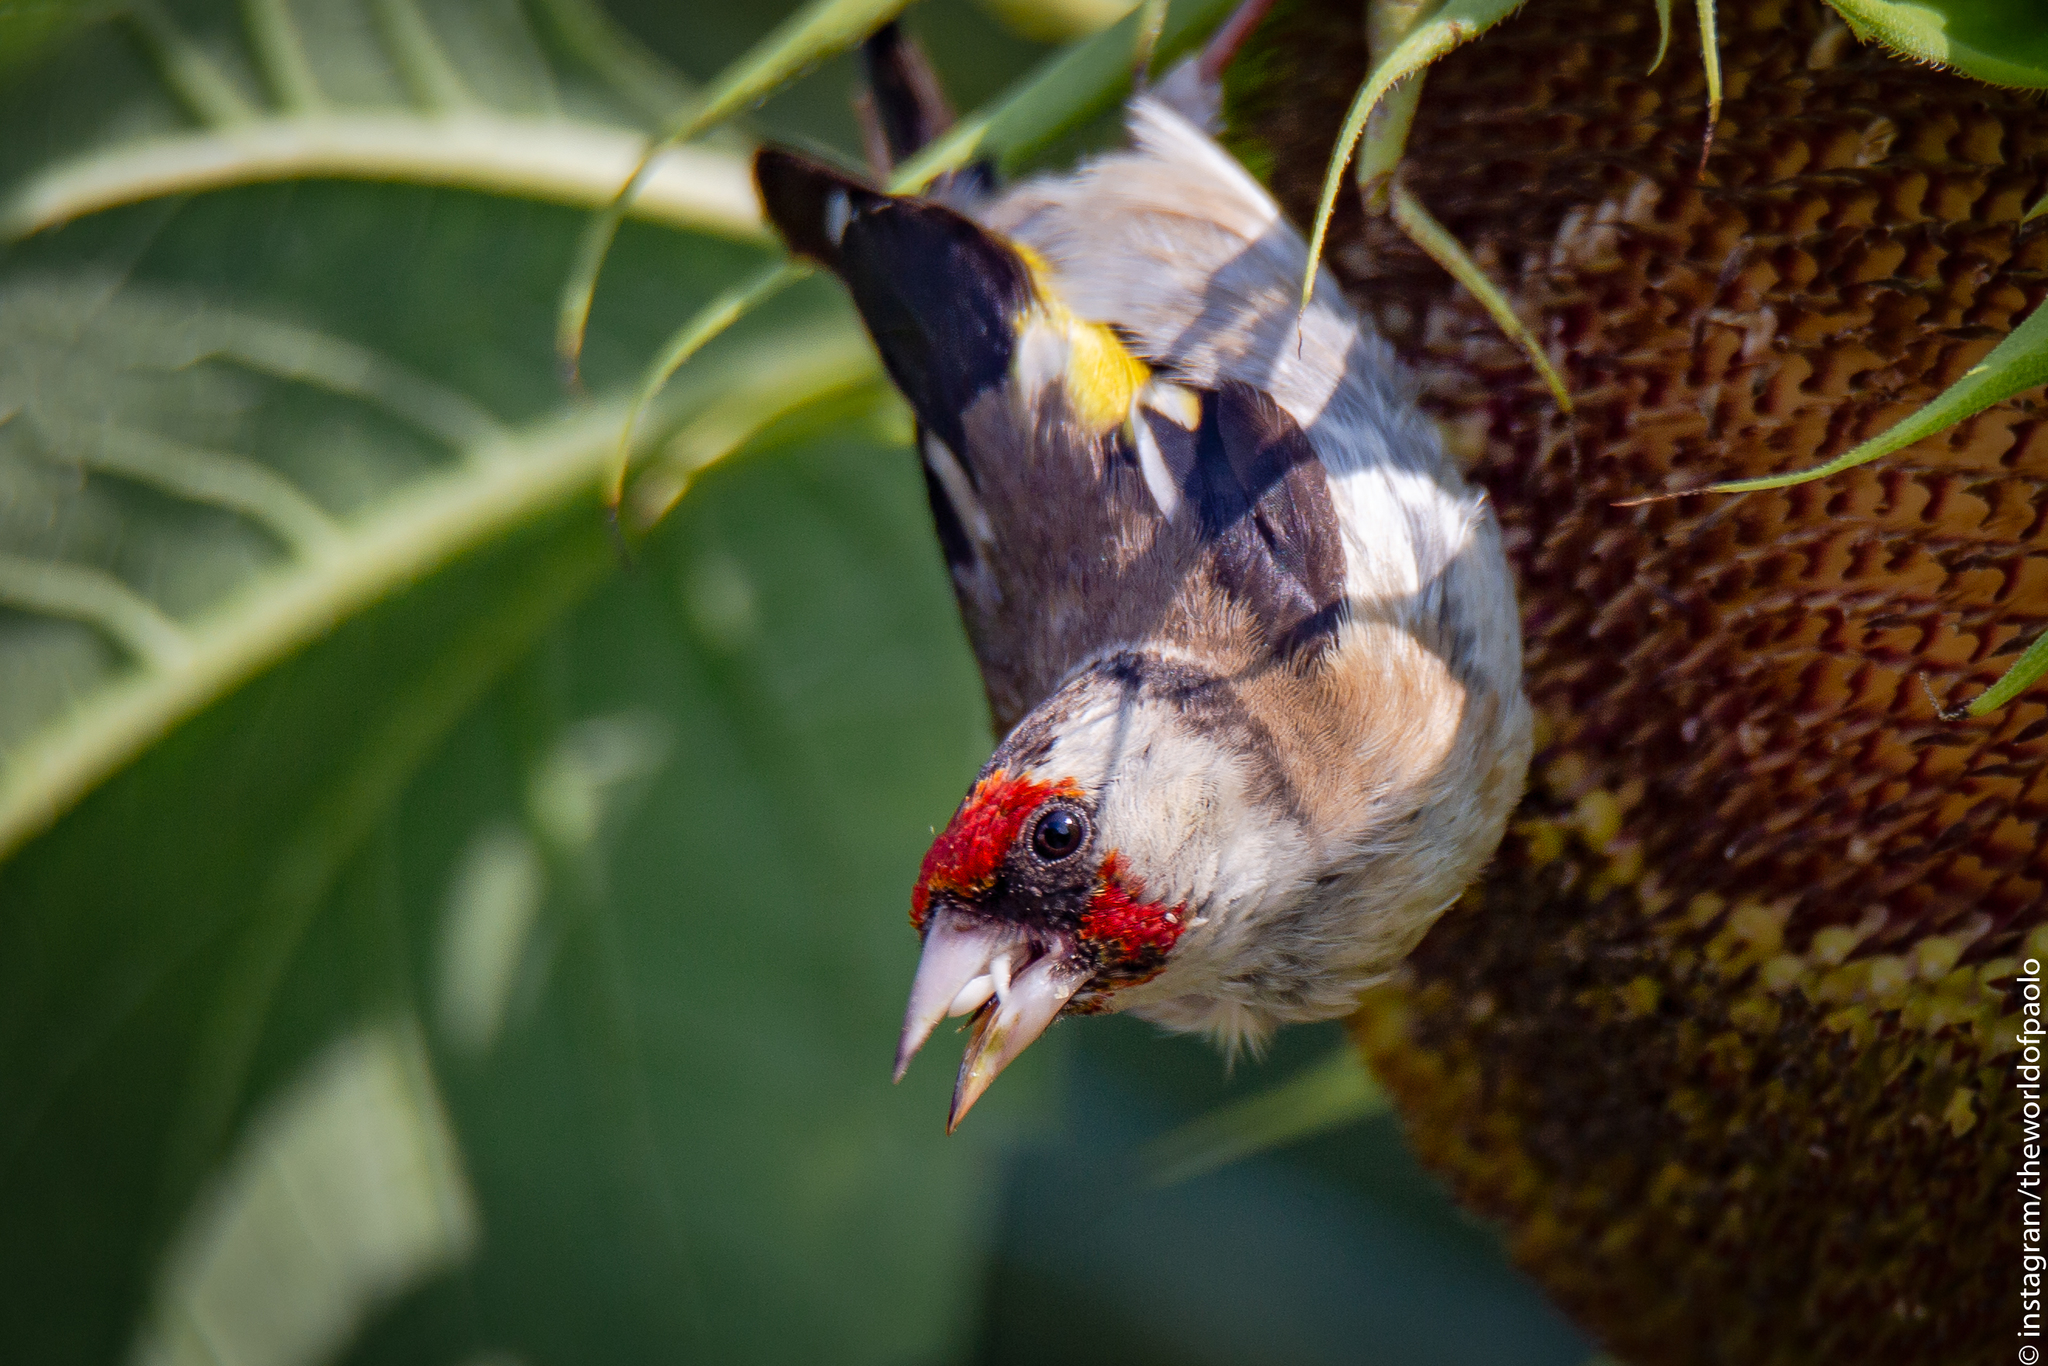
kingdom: Animalia
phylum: Chordata
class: Aves
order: Passeriformes
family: Fringillidae
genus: Carduelis
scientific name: Carduelis carduelis
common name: European goldfinch
